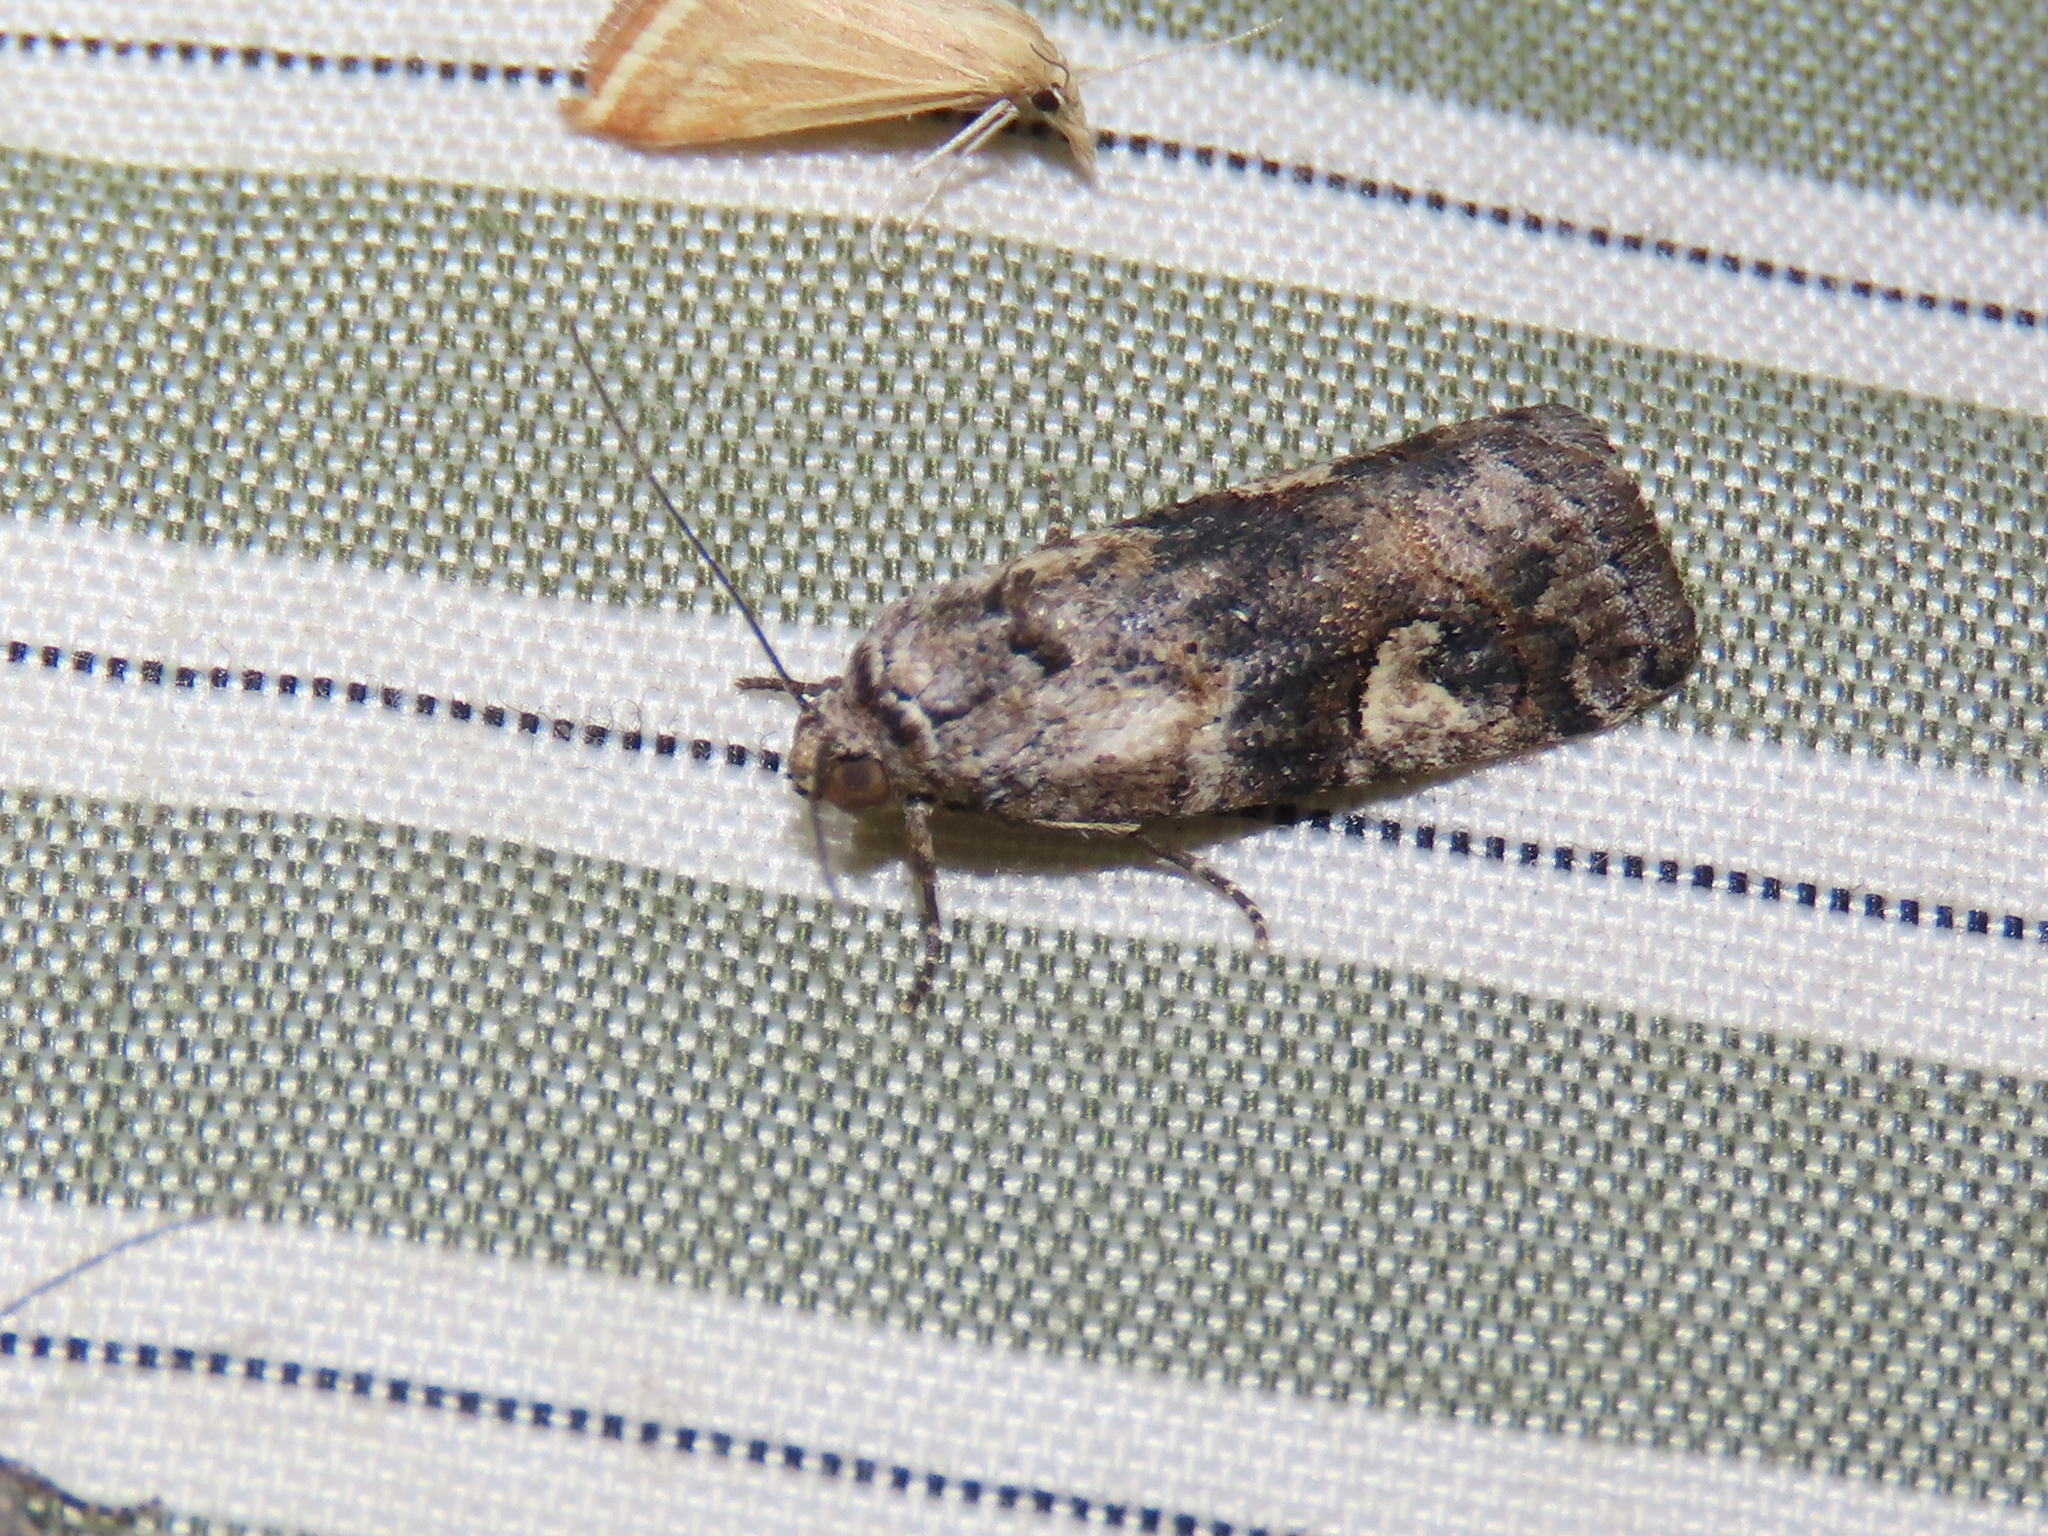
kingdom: Animalia
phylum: Arthropoda
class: Insecta
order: Lepidoptera
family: Noctuidae
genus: Metaponpneumata
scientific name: Metaponpneumata rogenhoferi
